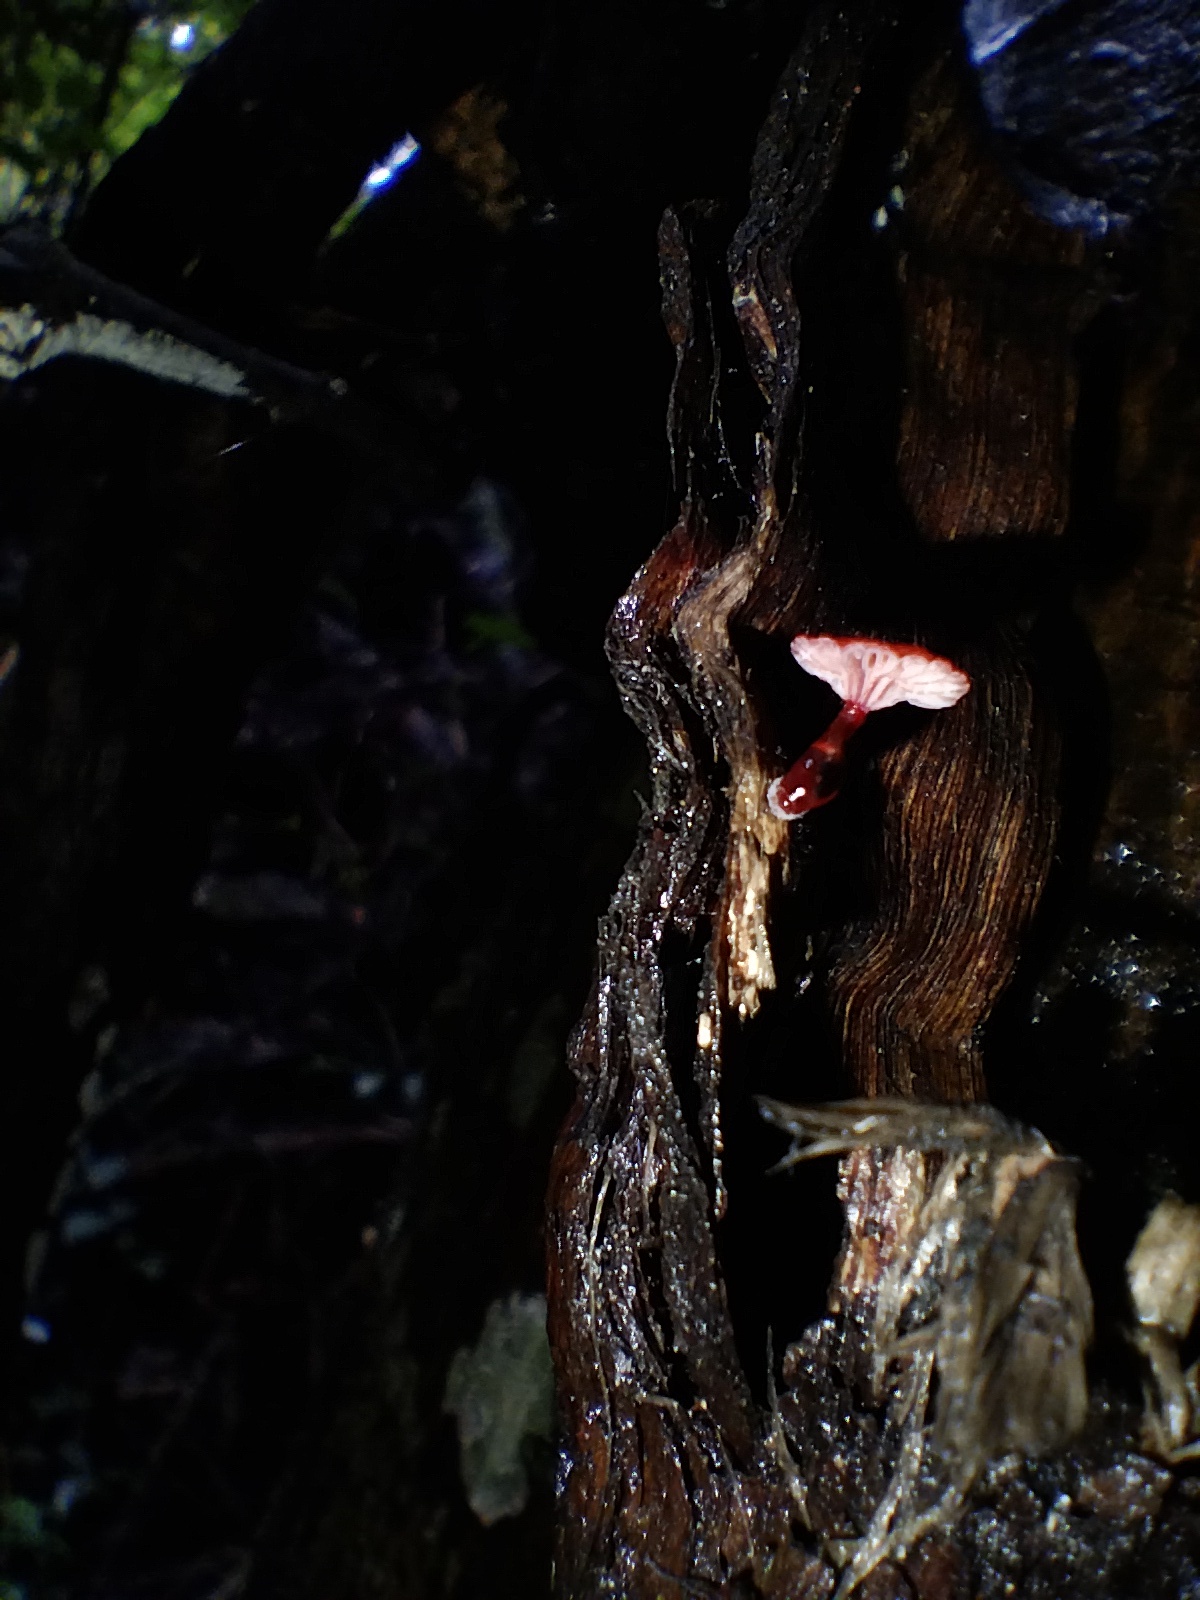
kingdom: Fungi
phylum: Basidiomycota
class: Agaricomycetes
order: Agaricales
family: Mycenaceae
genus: Cruentomycena
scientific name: Cruentomycena viscidocruenta
